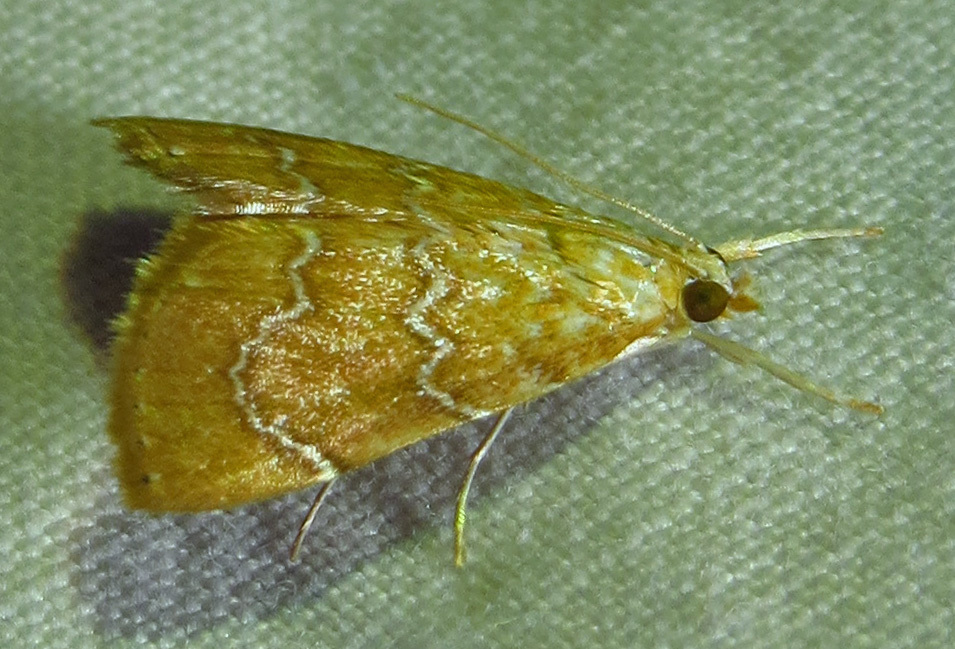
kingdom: Animalia
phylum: Arthropoda
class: Insecta
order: Lepidoptera
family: Crambidae
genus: Glaphyria
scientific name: Glaphyria sesquistrialis
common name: White-roped glaphyria
